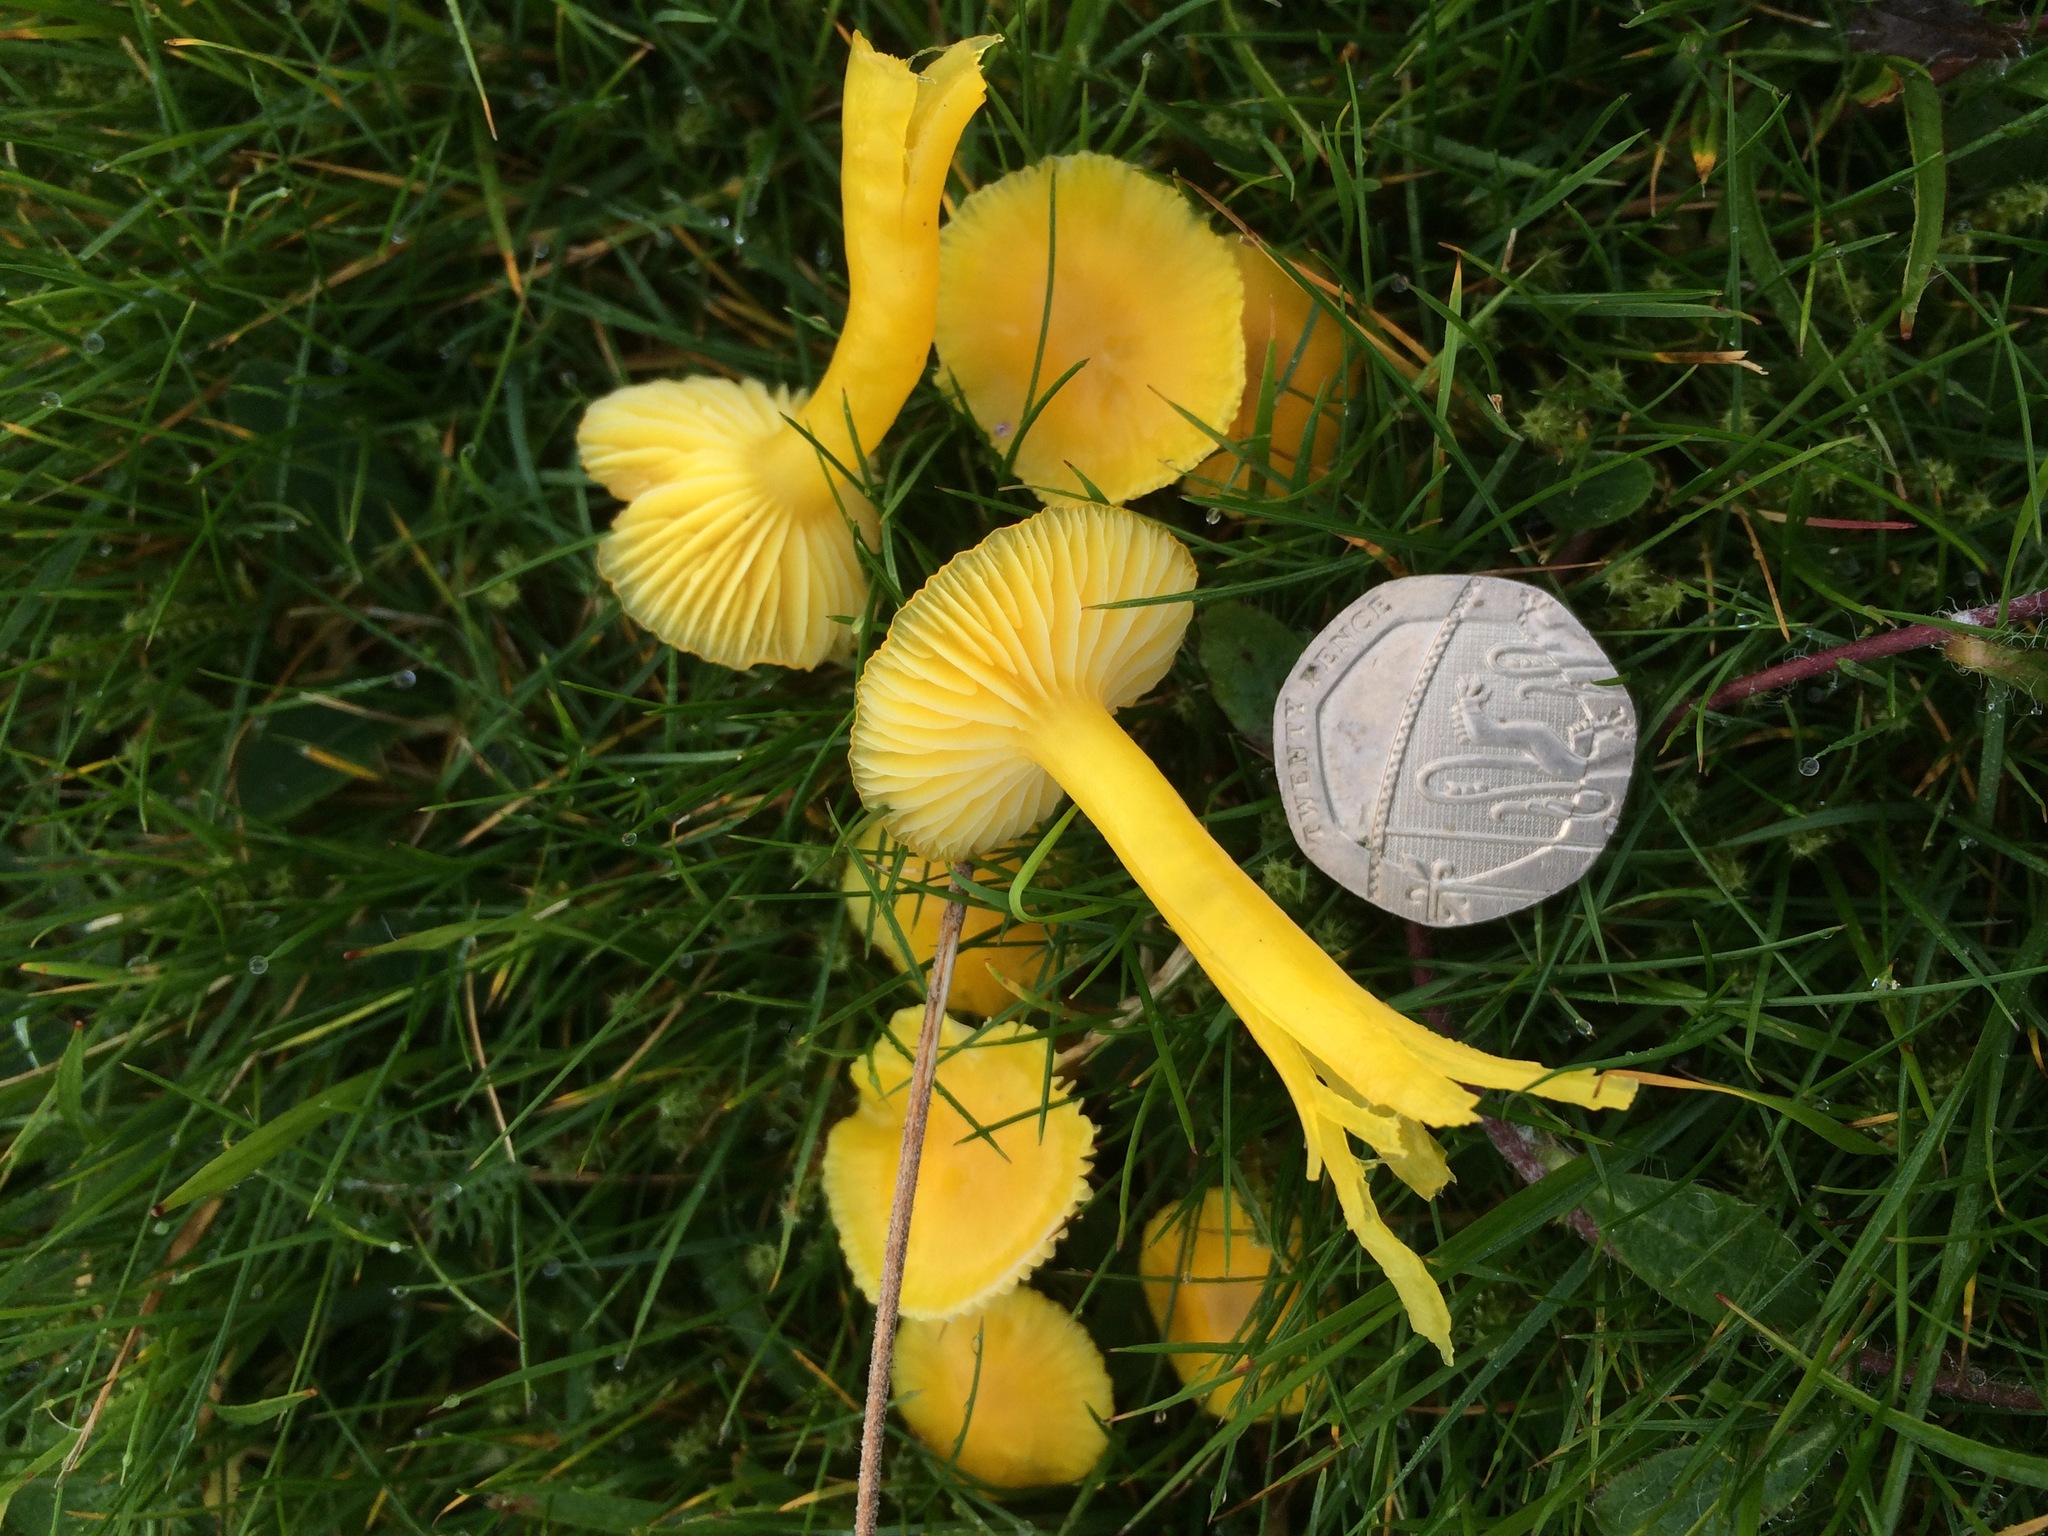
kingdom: Fungi
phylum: Basidiomycota
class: Agaricomycetes
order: Agaricales
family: Hygrophoraceae
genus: Hygrocybe
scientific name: Hygrocybe ceracea
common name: Butter waxcap
